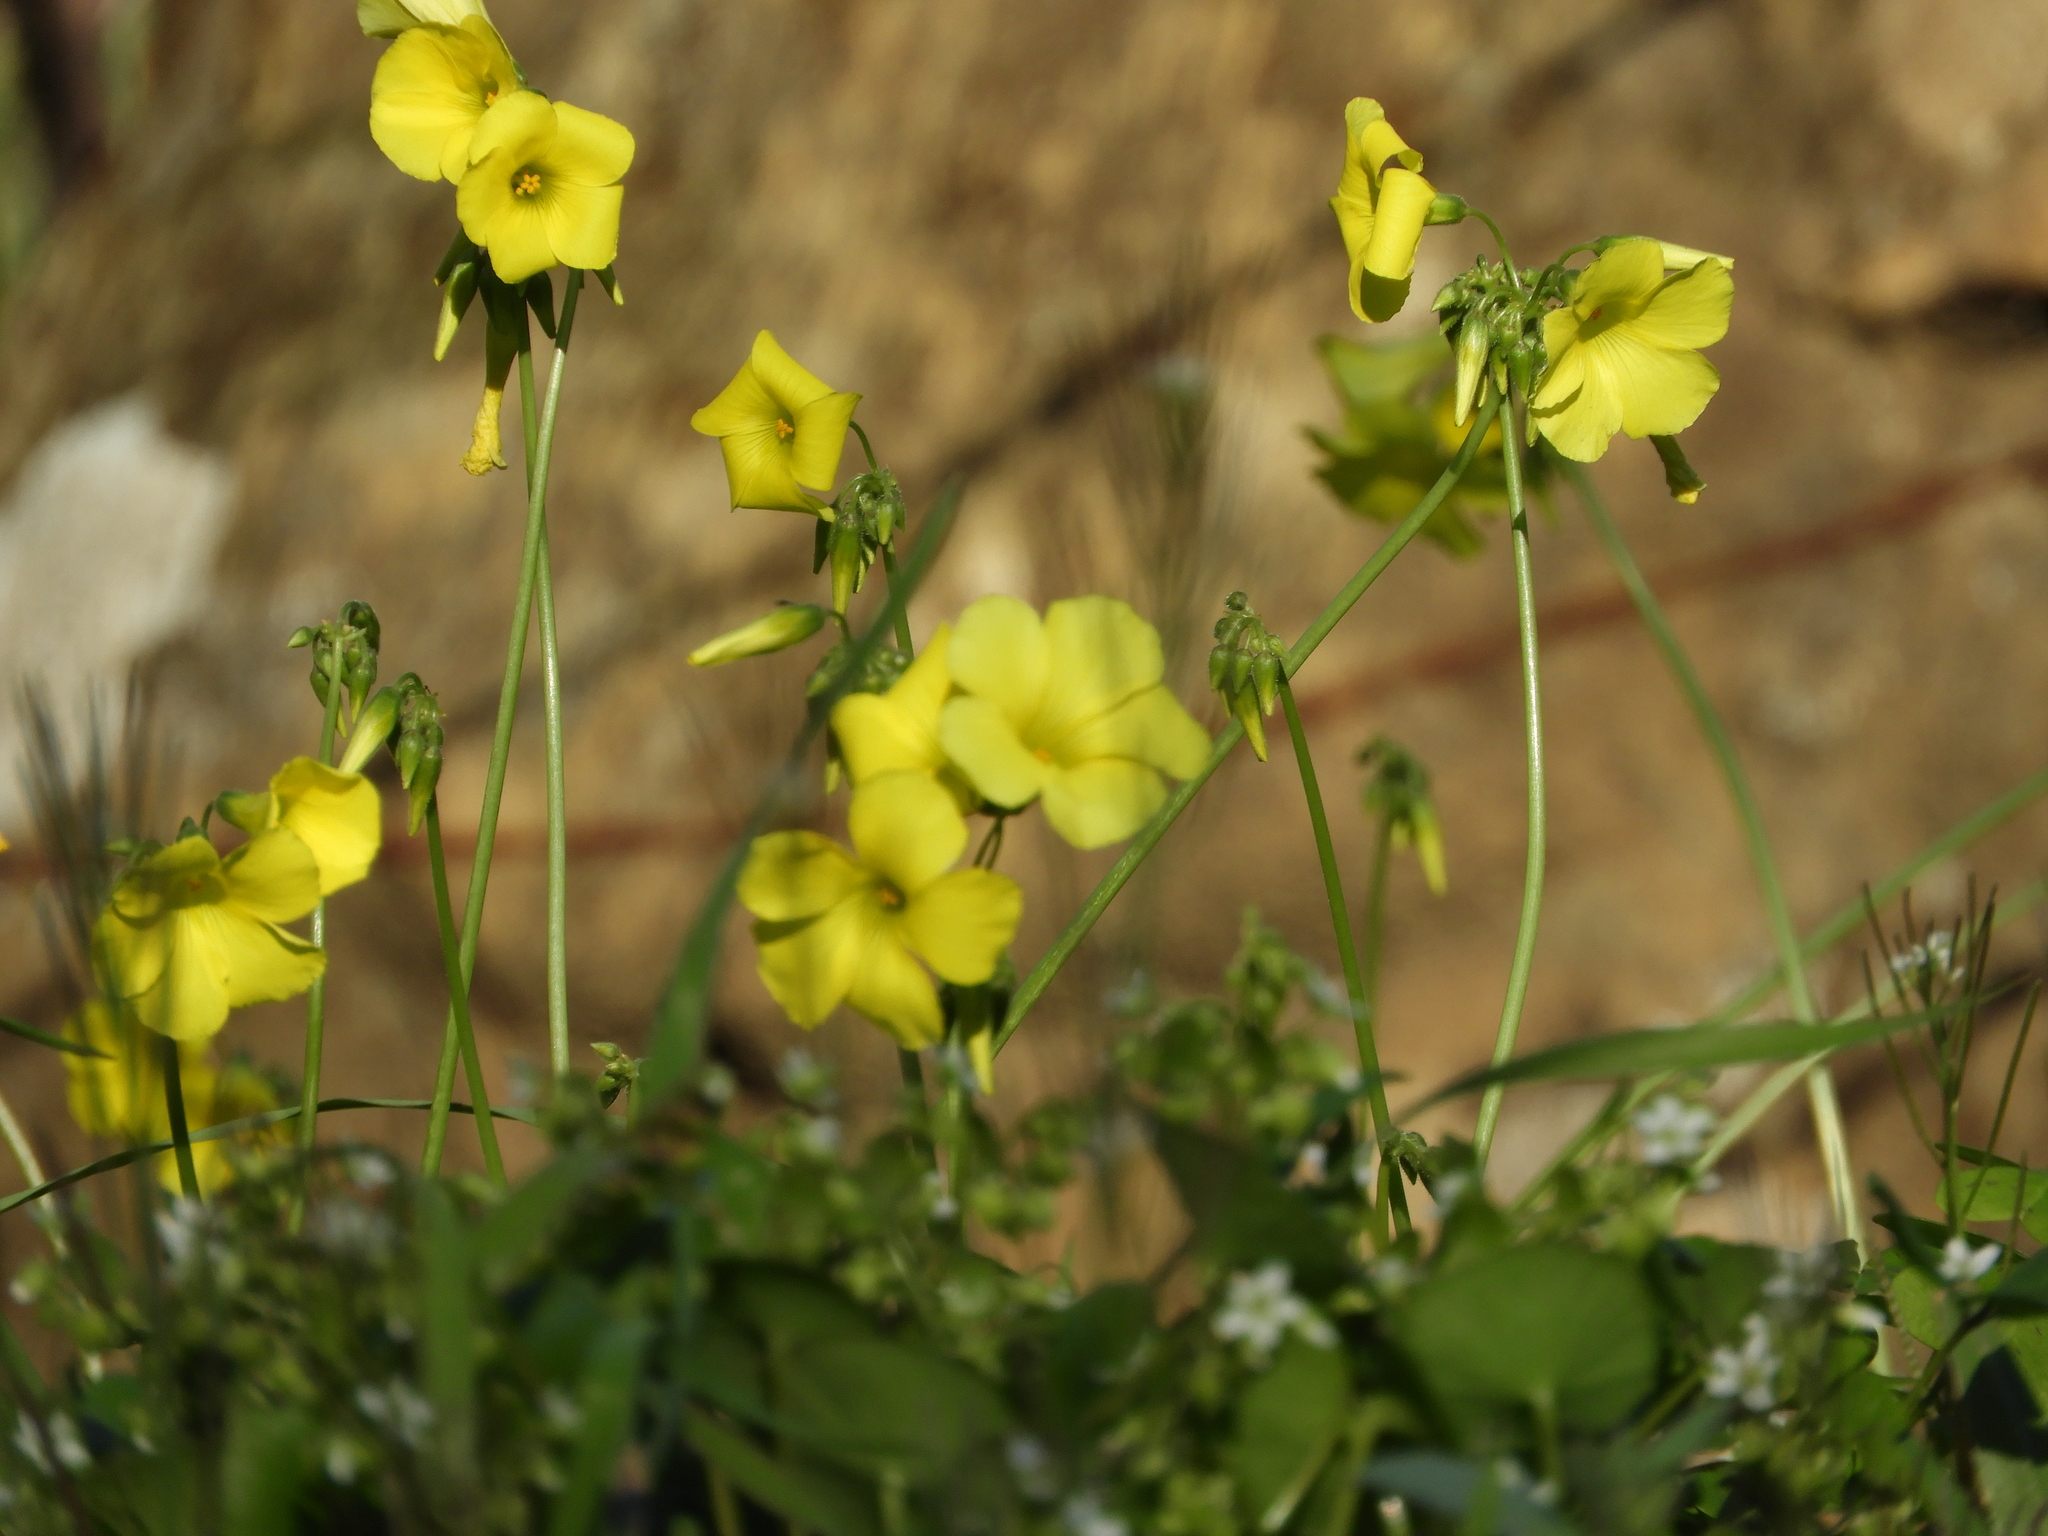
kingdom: Plantae
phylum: Tracheophyta
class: Magnoliopsida
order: Oxalidales
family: Oxalidaceae
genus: Oxalis
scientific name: Oxalis pes-caprae
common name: Bermuda-buttercup
